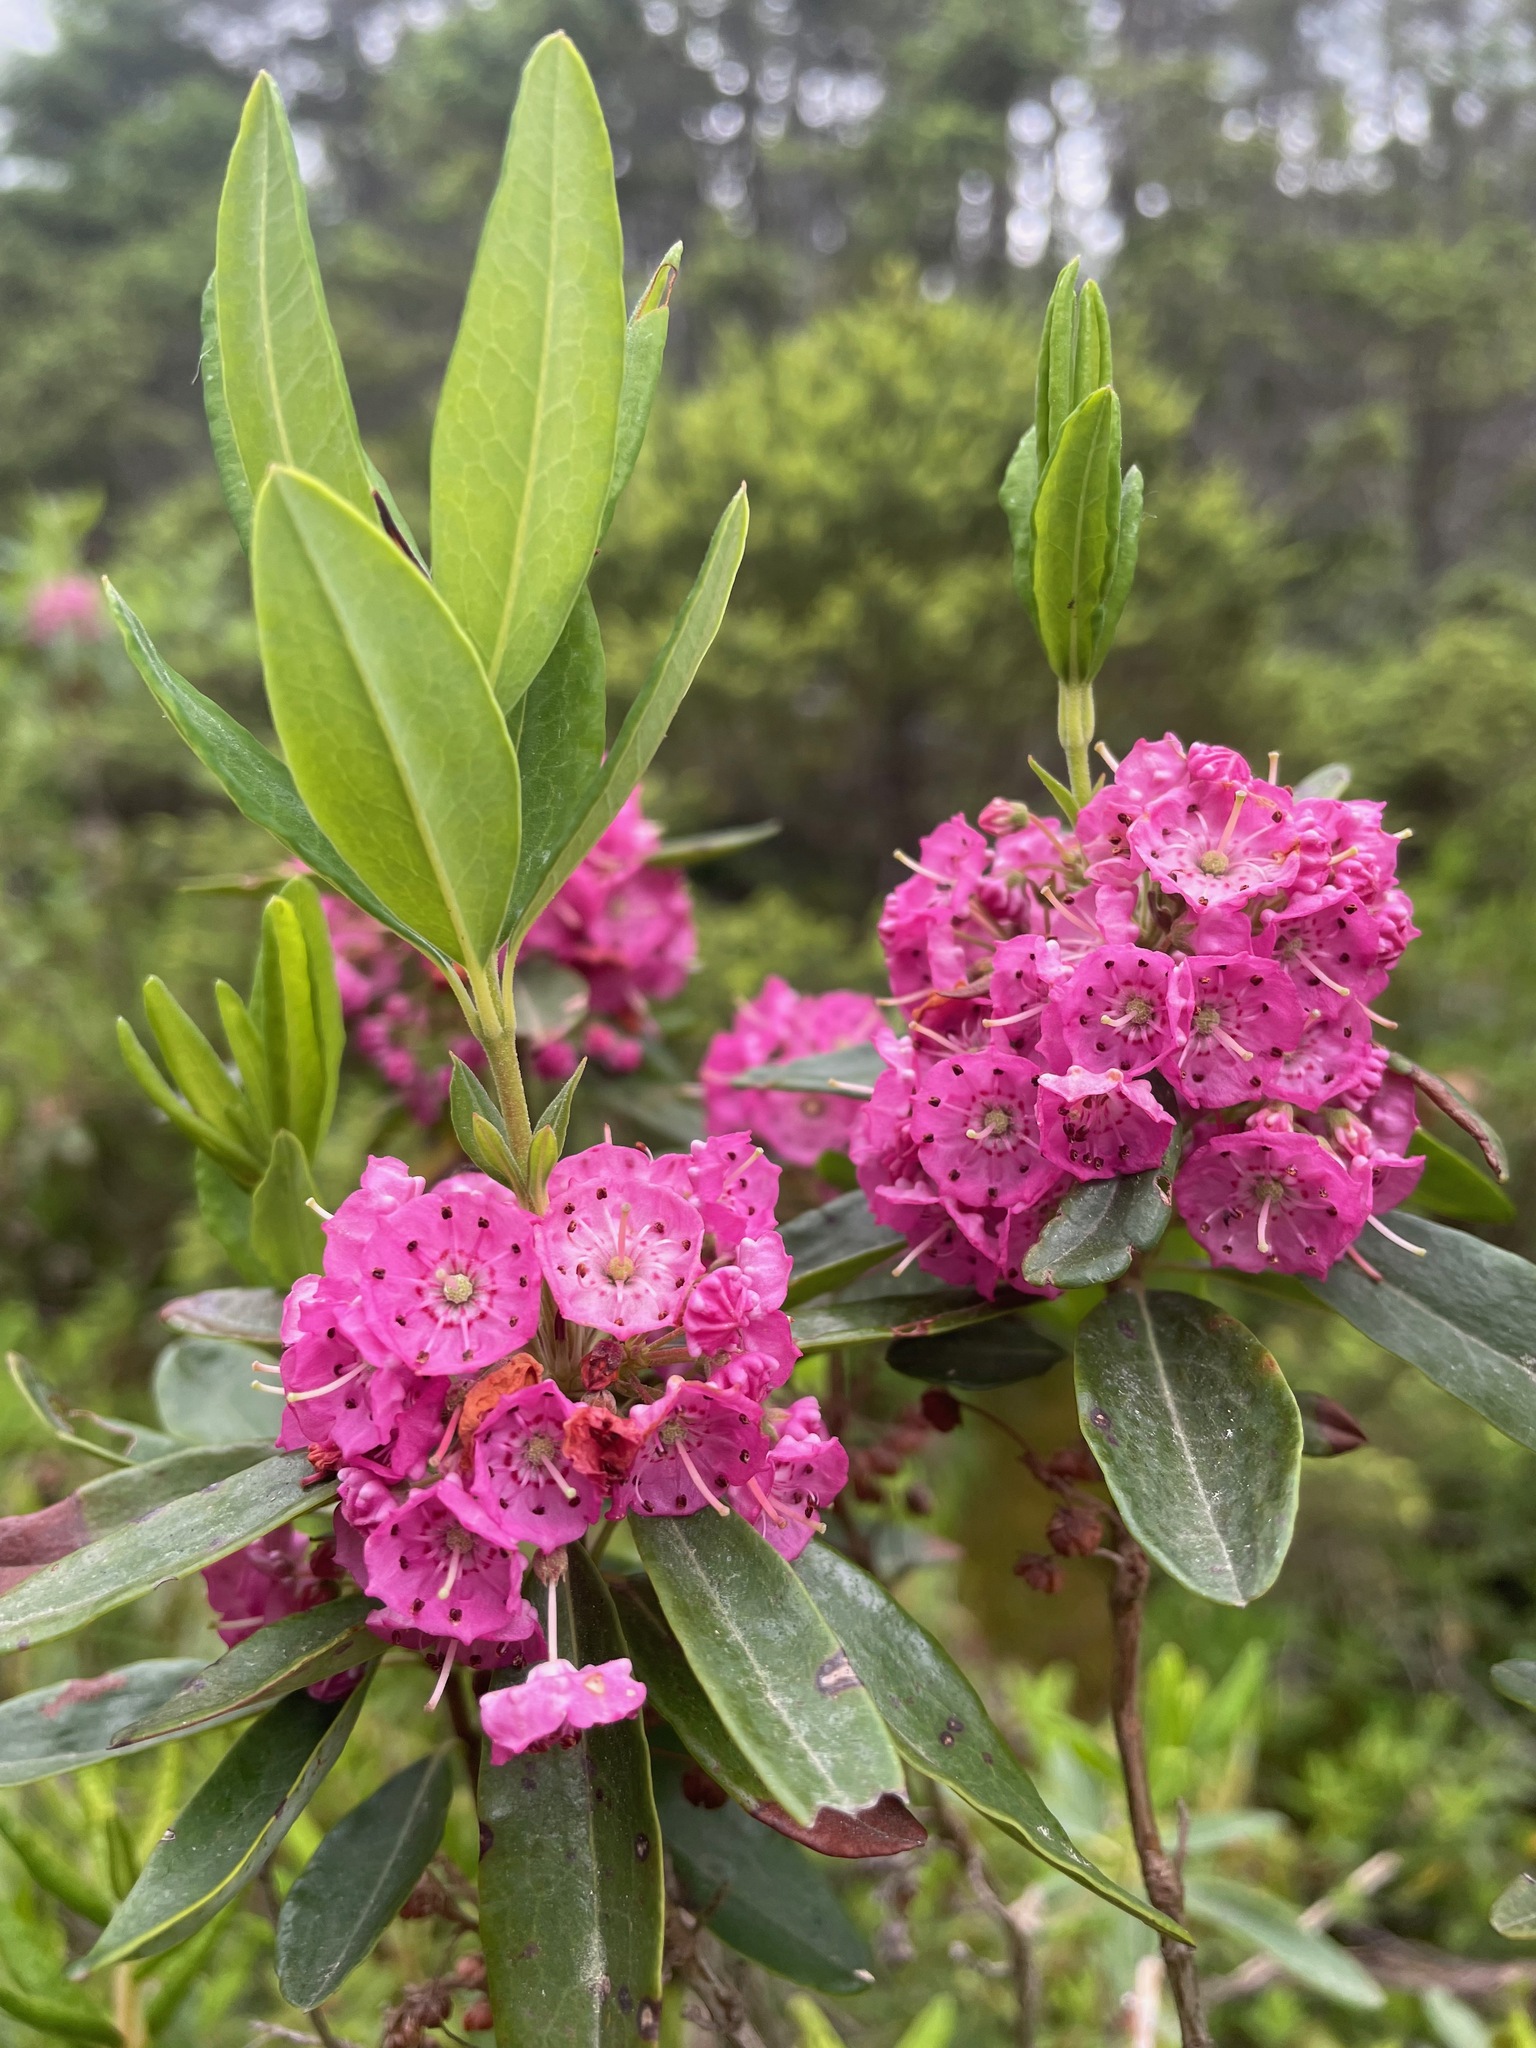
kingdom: Plantae
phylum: Tracheophyta
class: Magnoliopsida
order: Ericales
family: Ericaceae
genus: Kalmia
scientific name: Kalmia angustifolia
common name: Sheep-laurel
